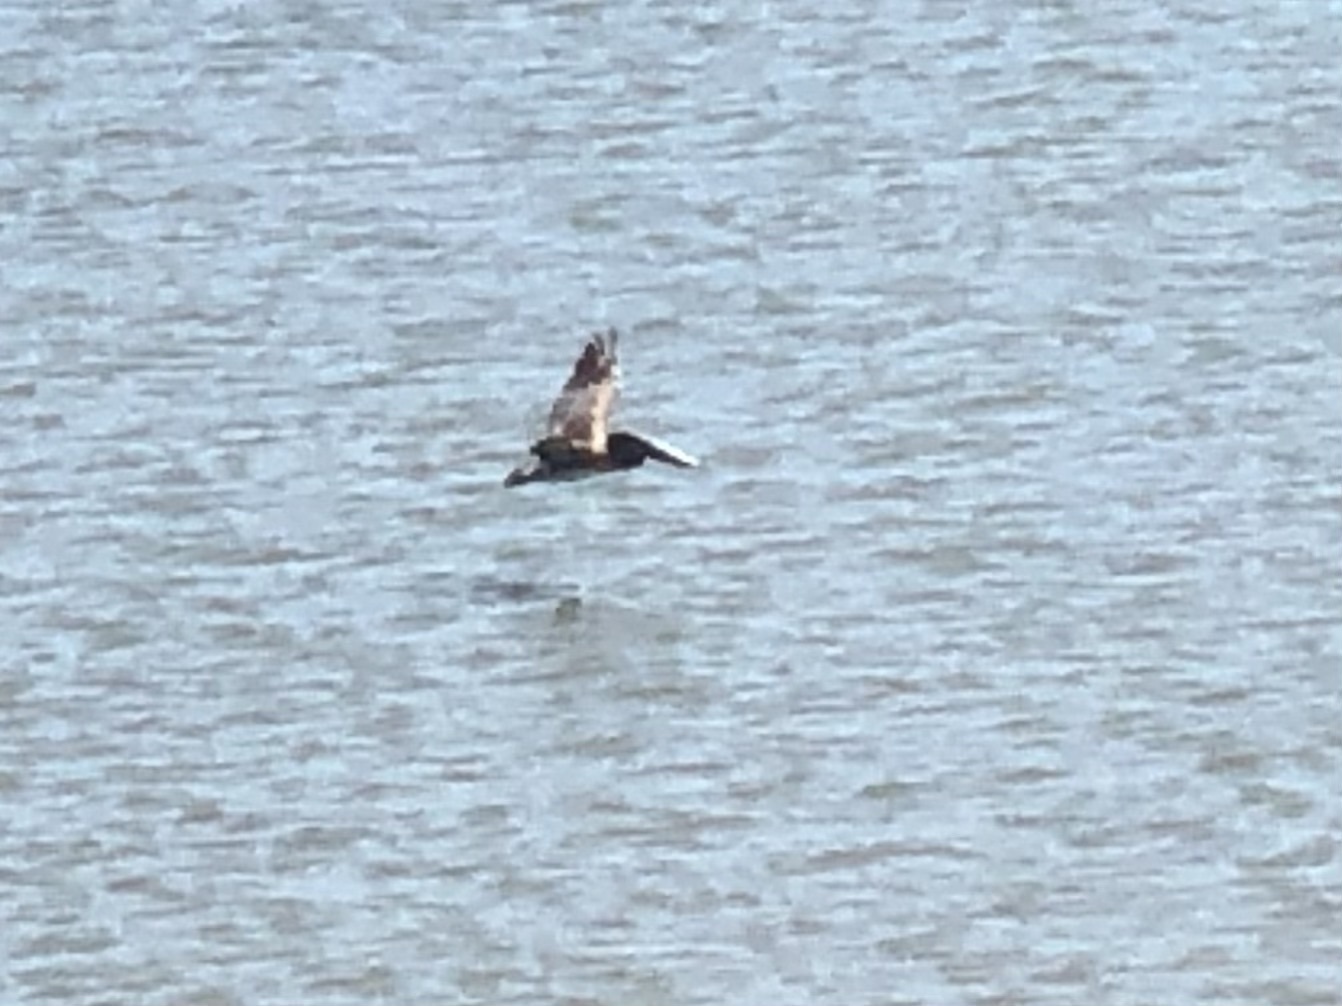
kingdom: Animalia
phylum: Chordata
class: Aves
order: Pelecaniformes
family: Pelecanidae
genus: Pelecanus
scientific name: Pelecanus occidentalis
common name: Brown pelican
